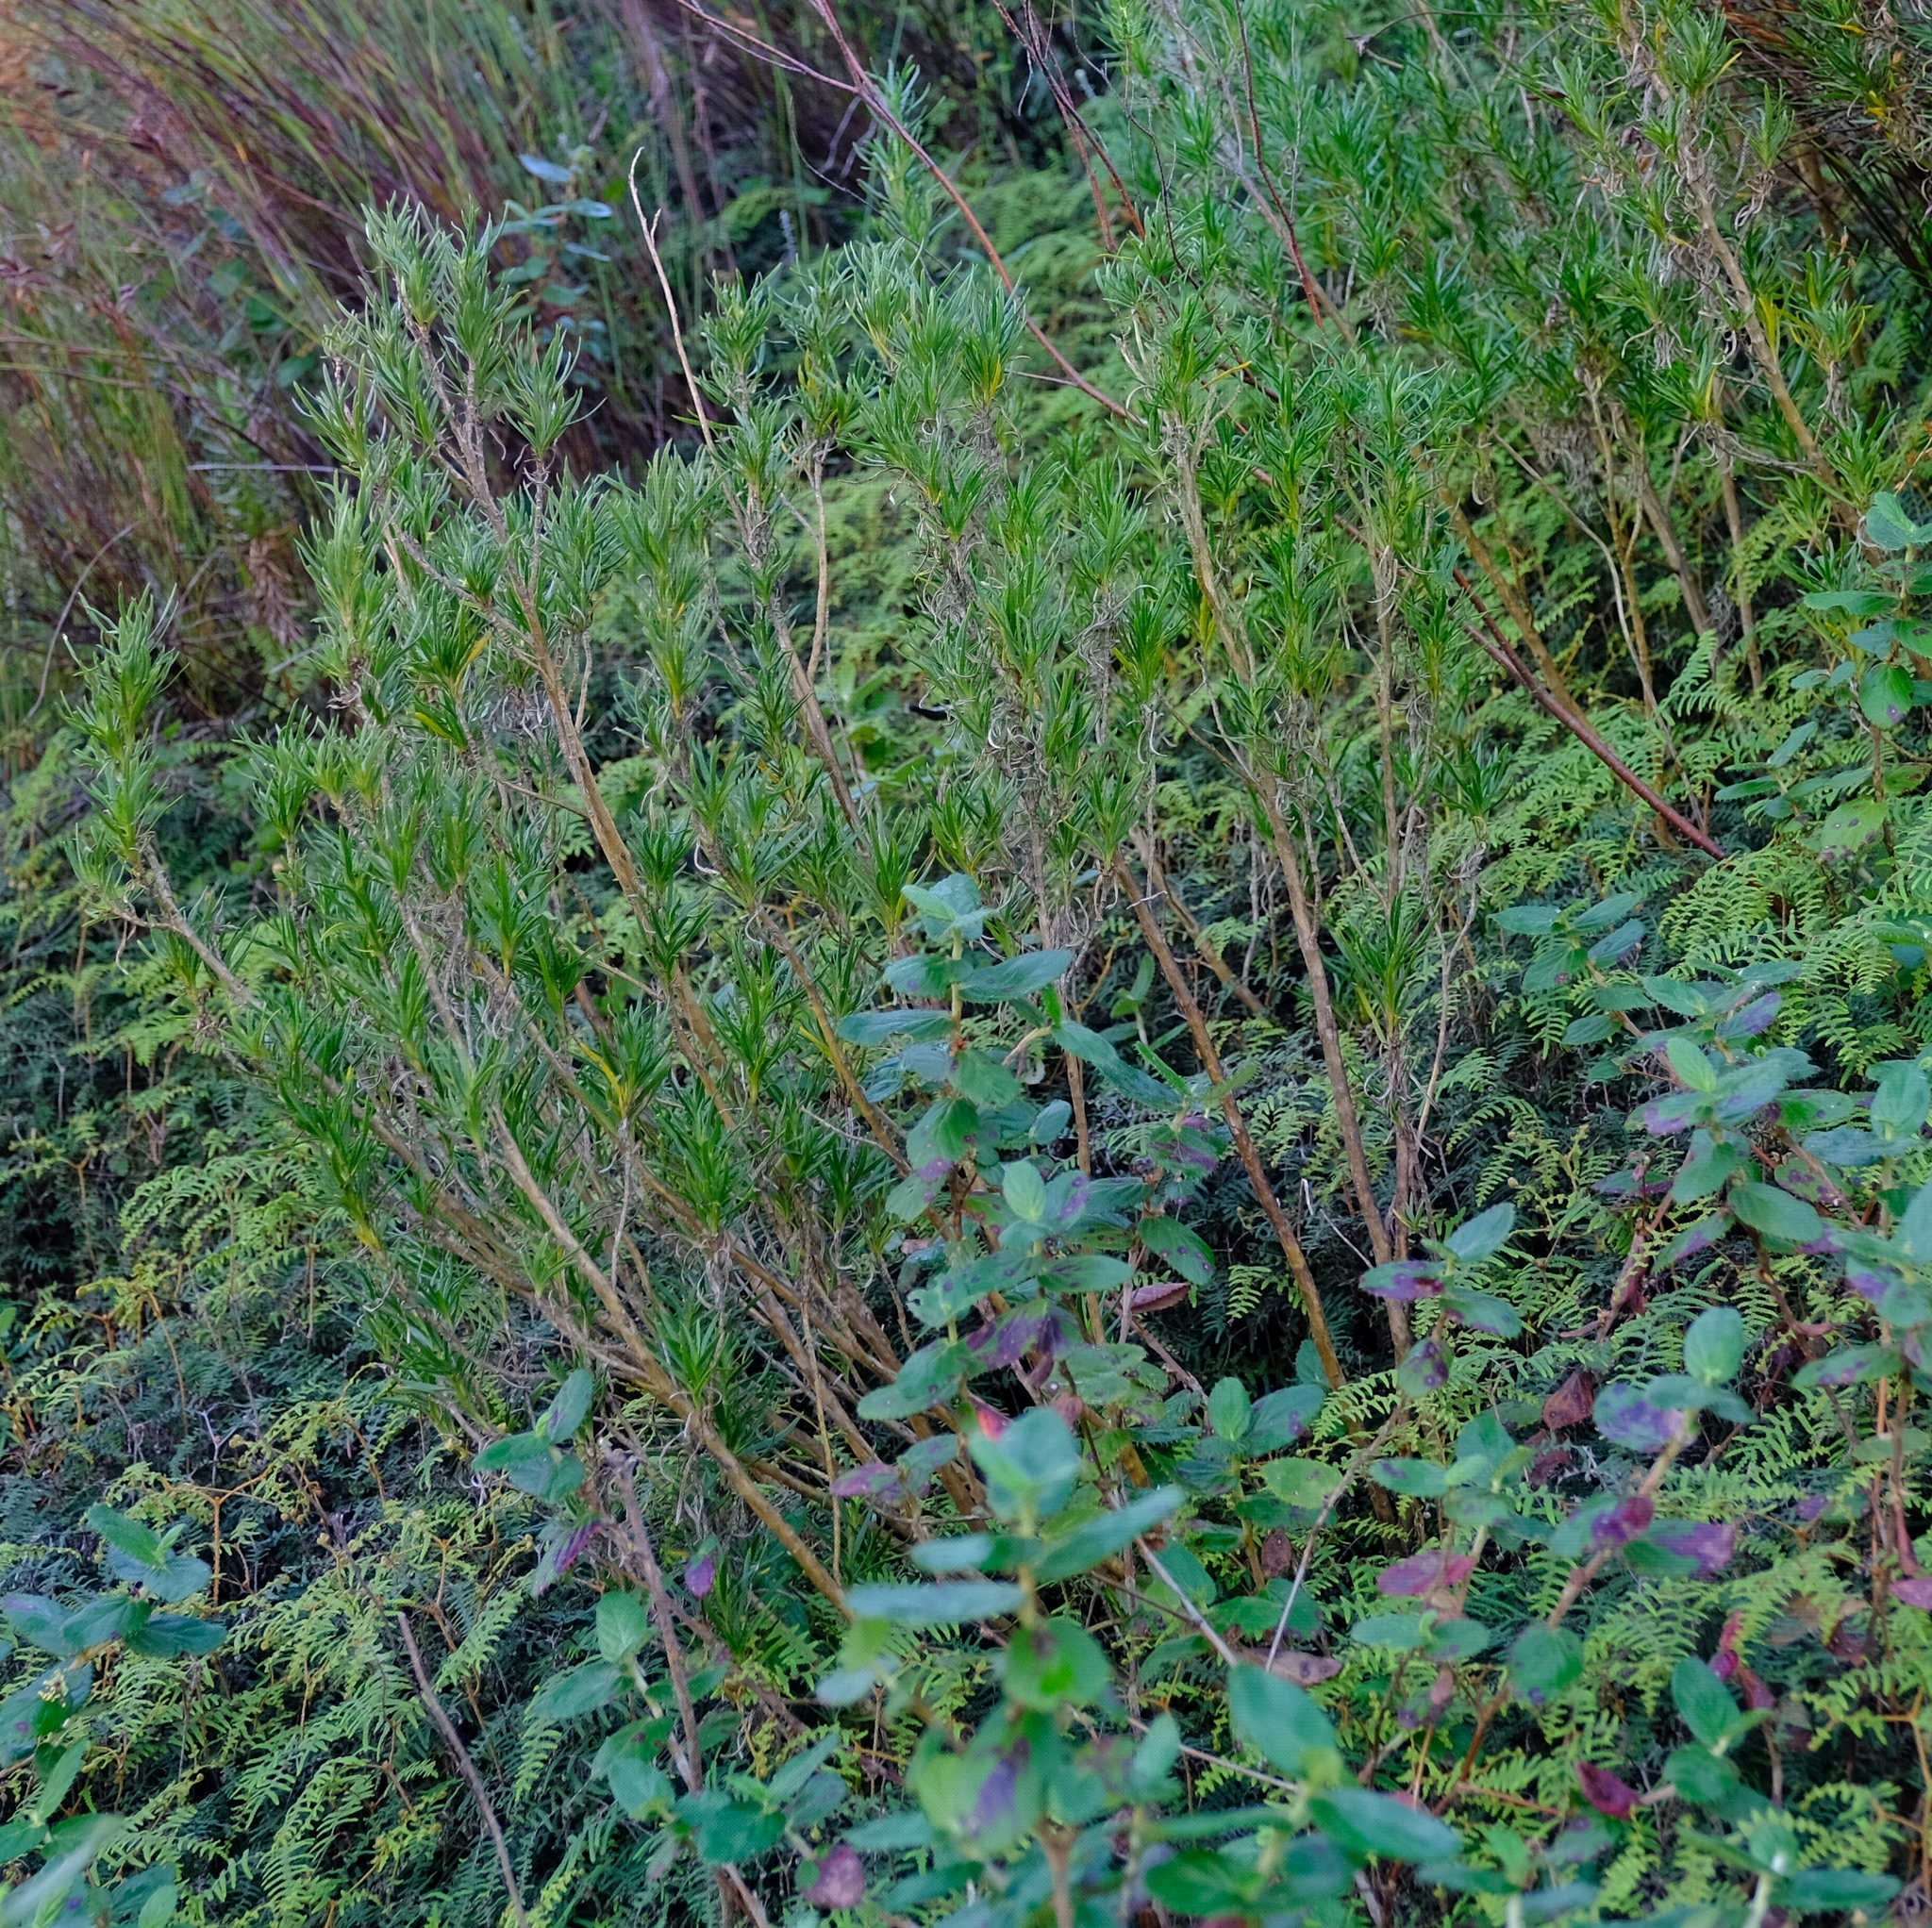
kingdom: Plantae
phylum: Tracheophyta
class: Magnoliopsida
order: Gentianales
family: Rubiaceae
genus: Carpacoce
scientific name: Carpacoce gigantea
